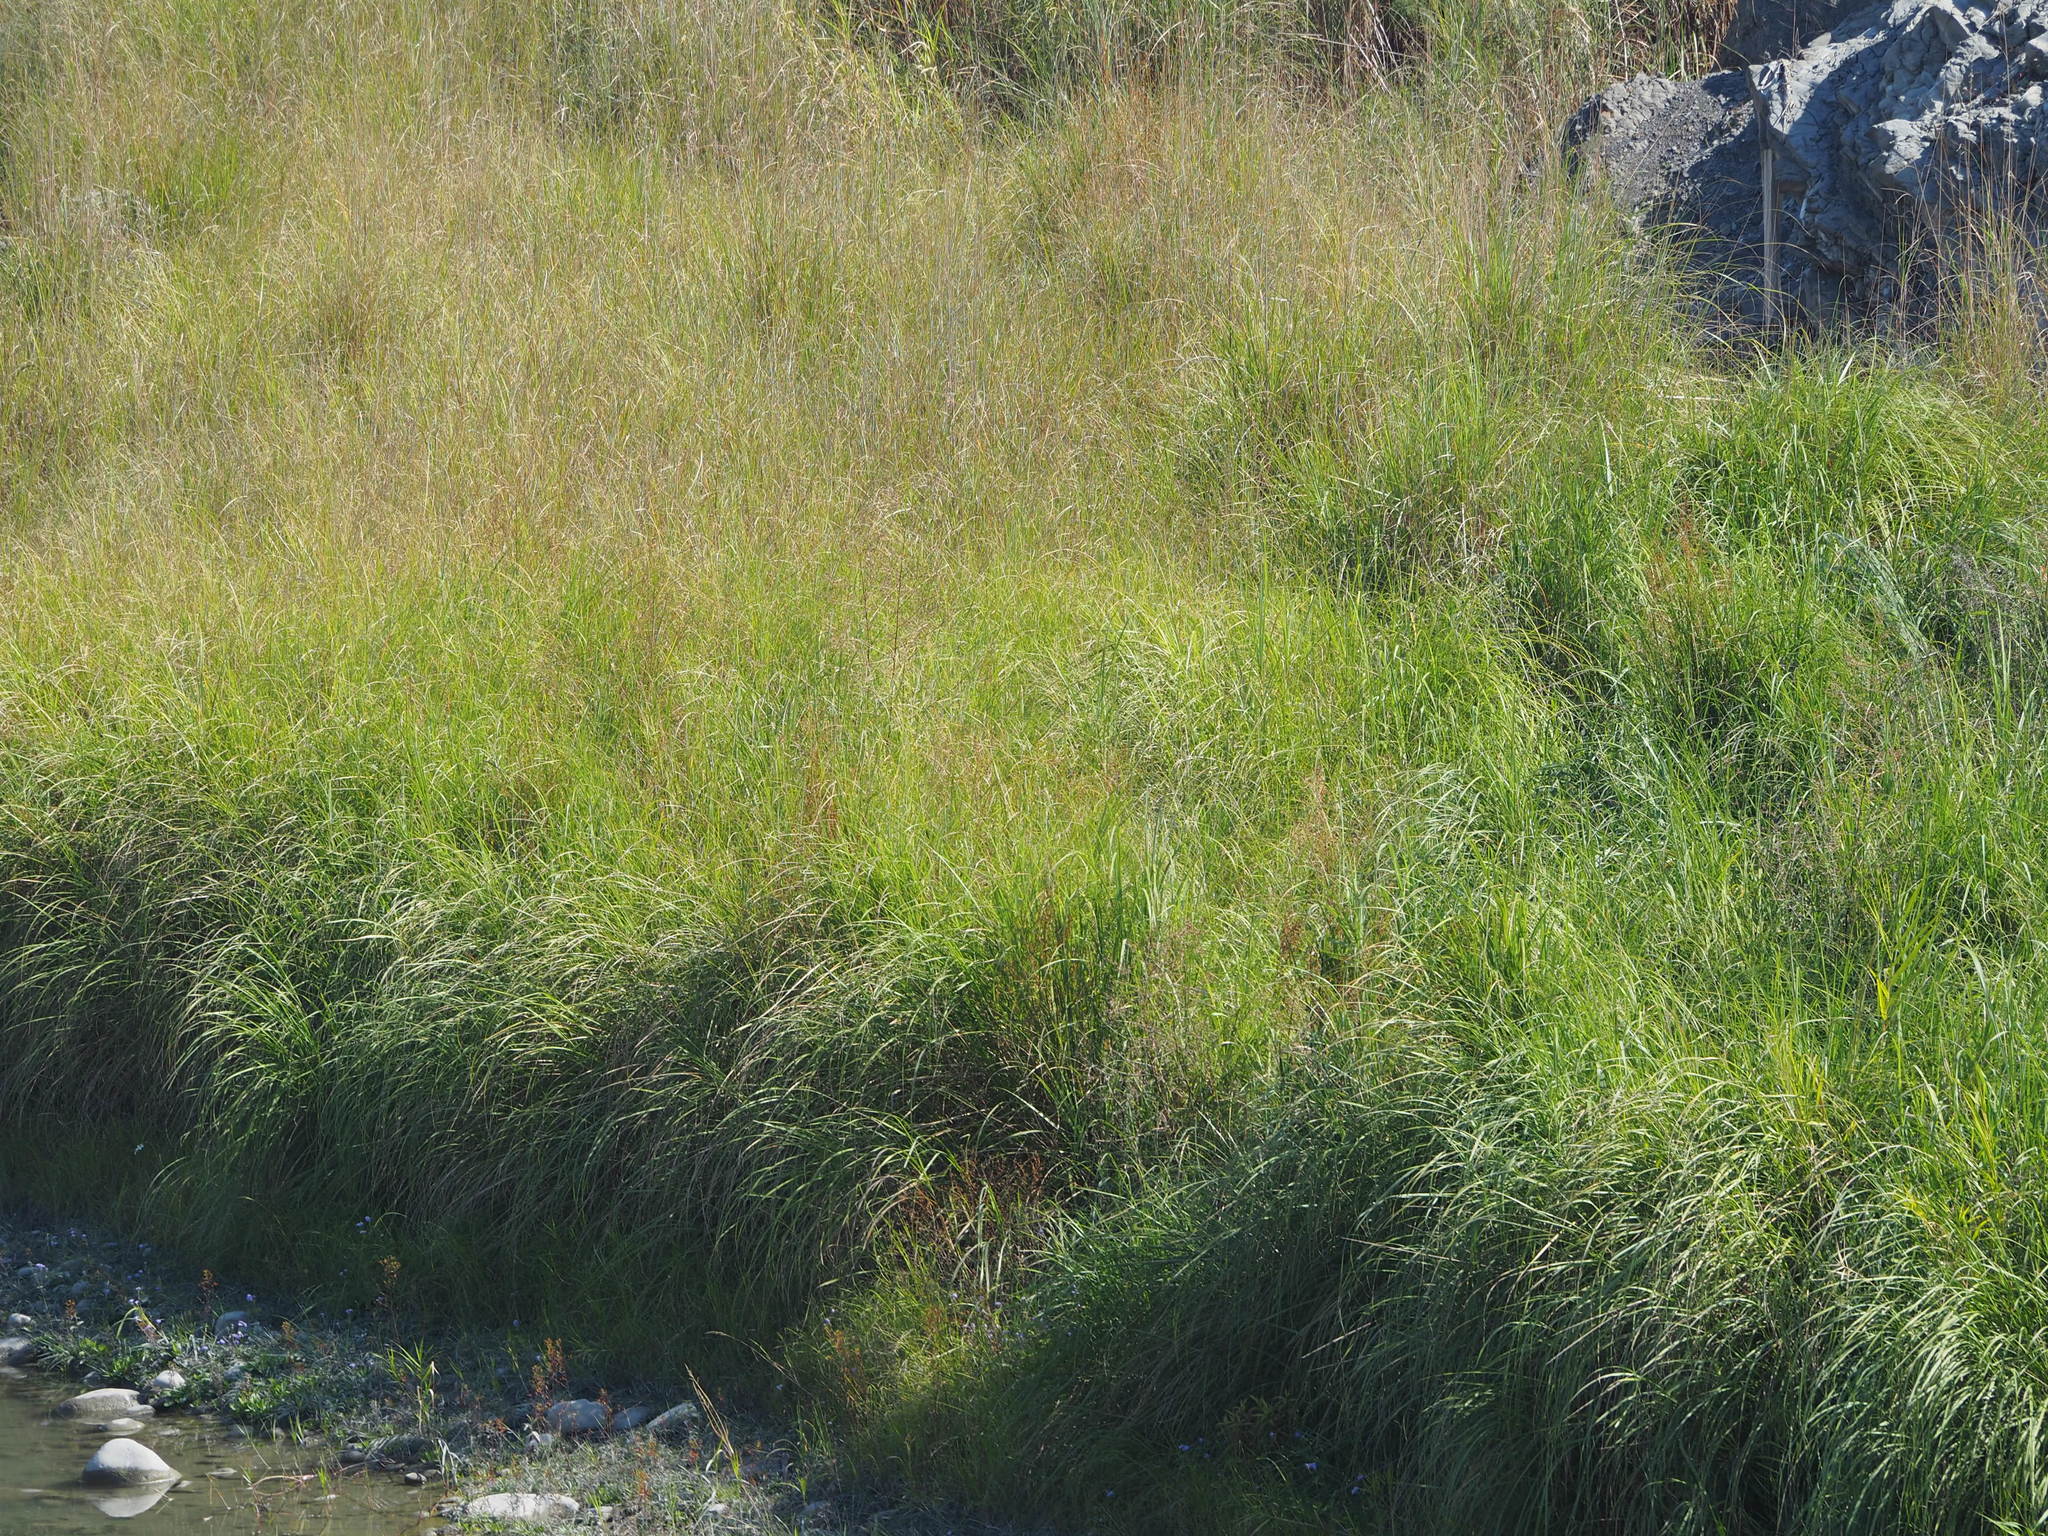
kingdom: Plantae
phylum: Tracheophyta
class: Liliopsida
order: Poales
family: Poaceae
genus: Saccharum
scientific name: Saccharum spontaneum
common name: Wild sugarcane
